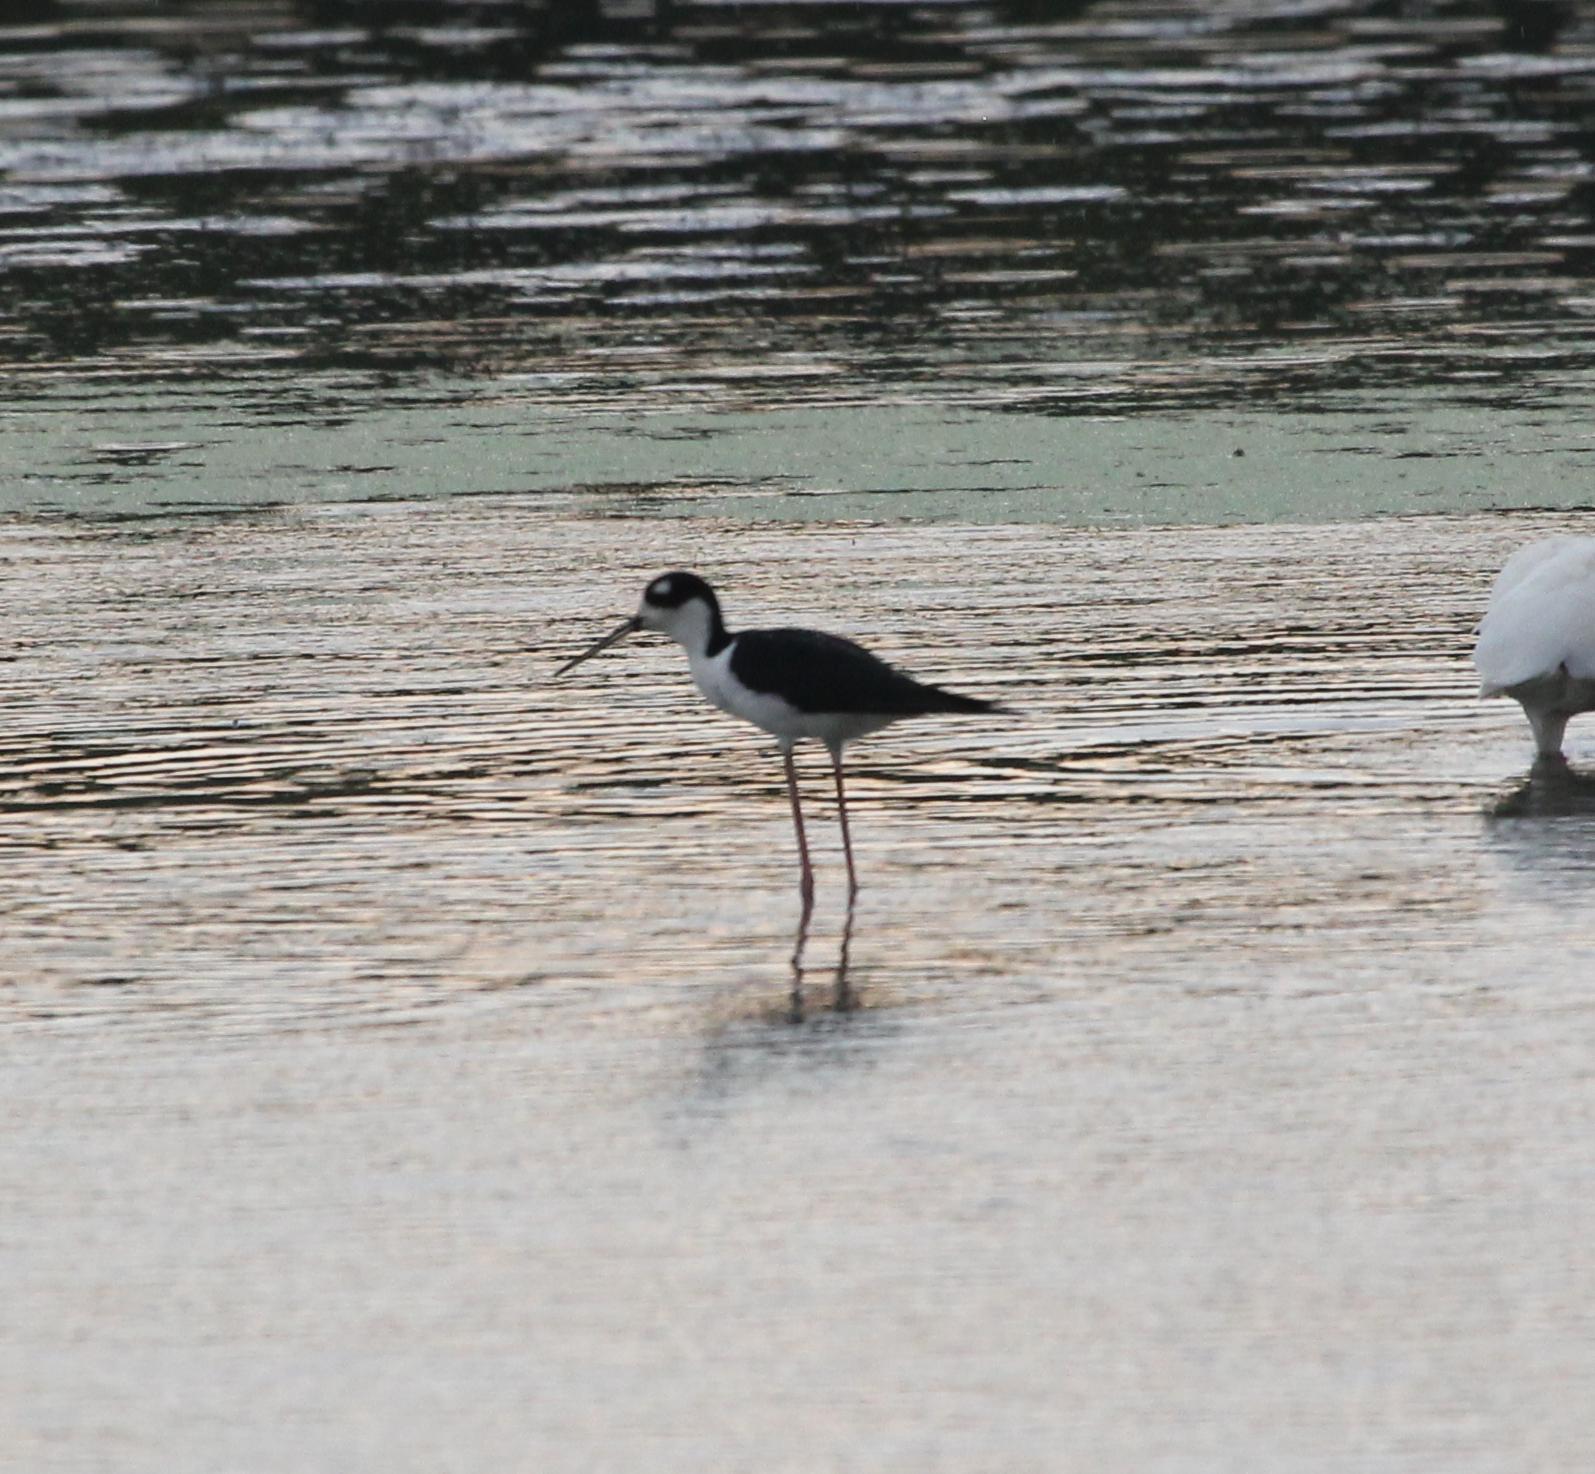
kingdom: Animalia
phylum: Chordata
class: Aves
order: Charadriiformes
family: Recurvirostridae
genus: Himantopus
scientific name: Himantopus mexicanus
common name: Black-necked stilt
